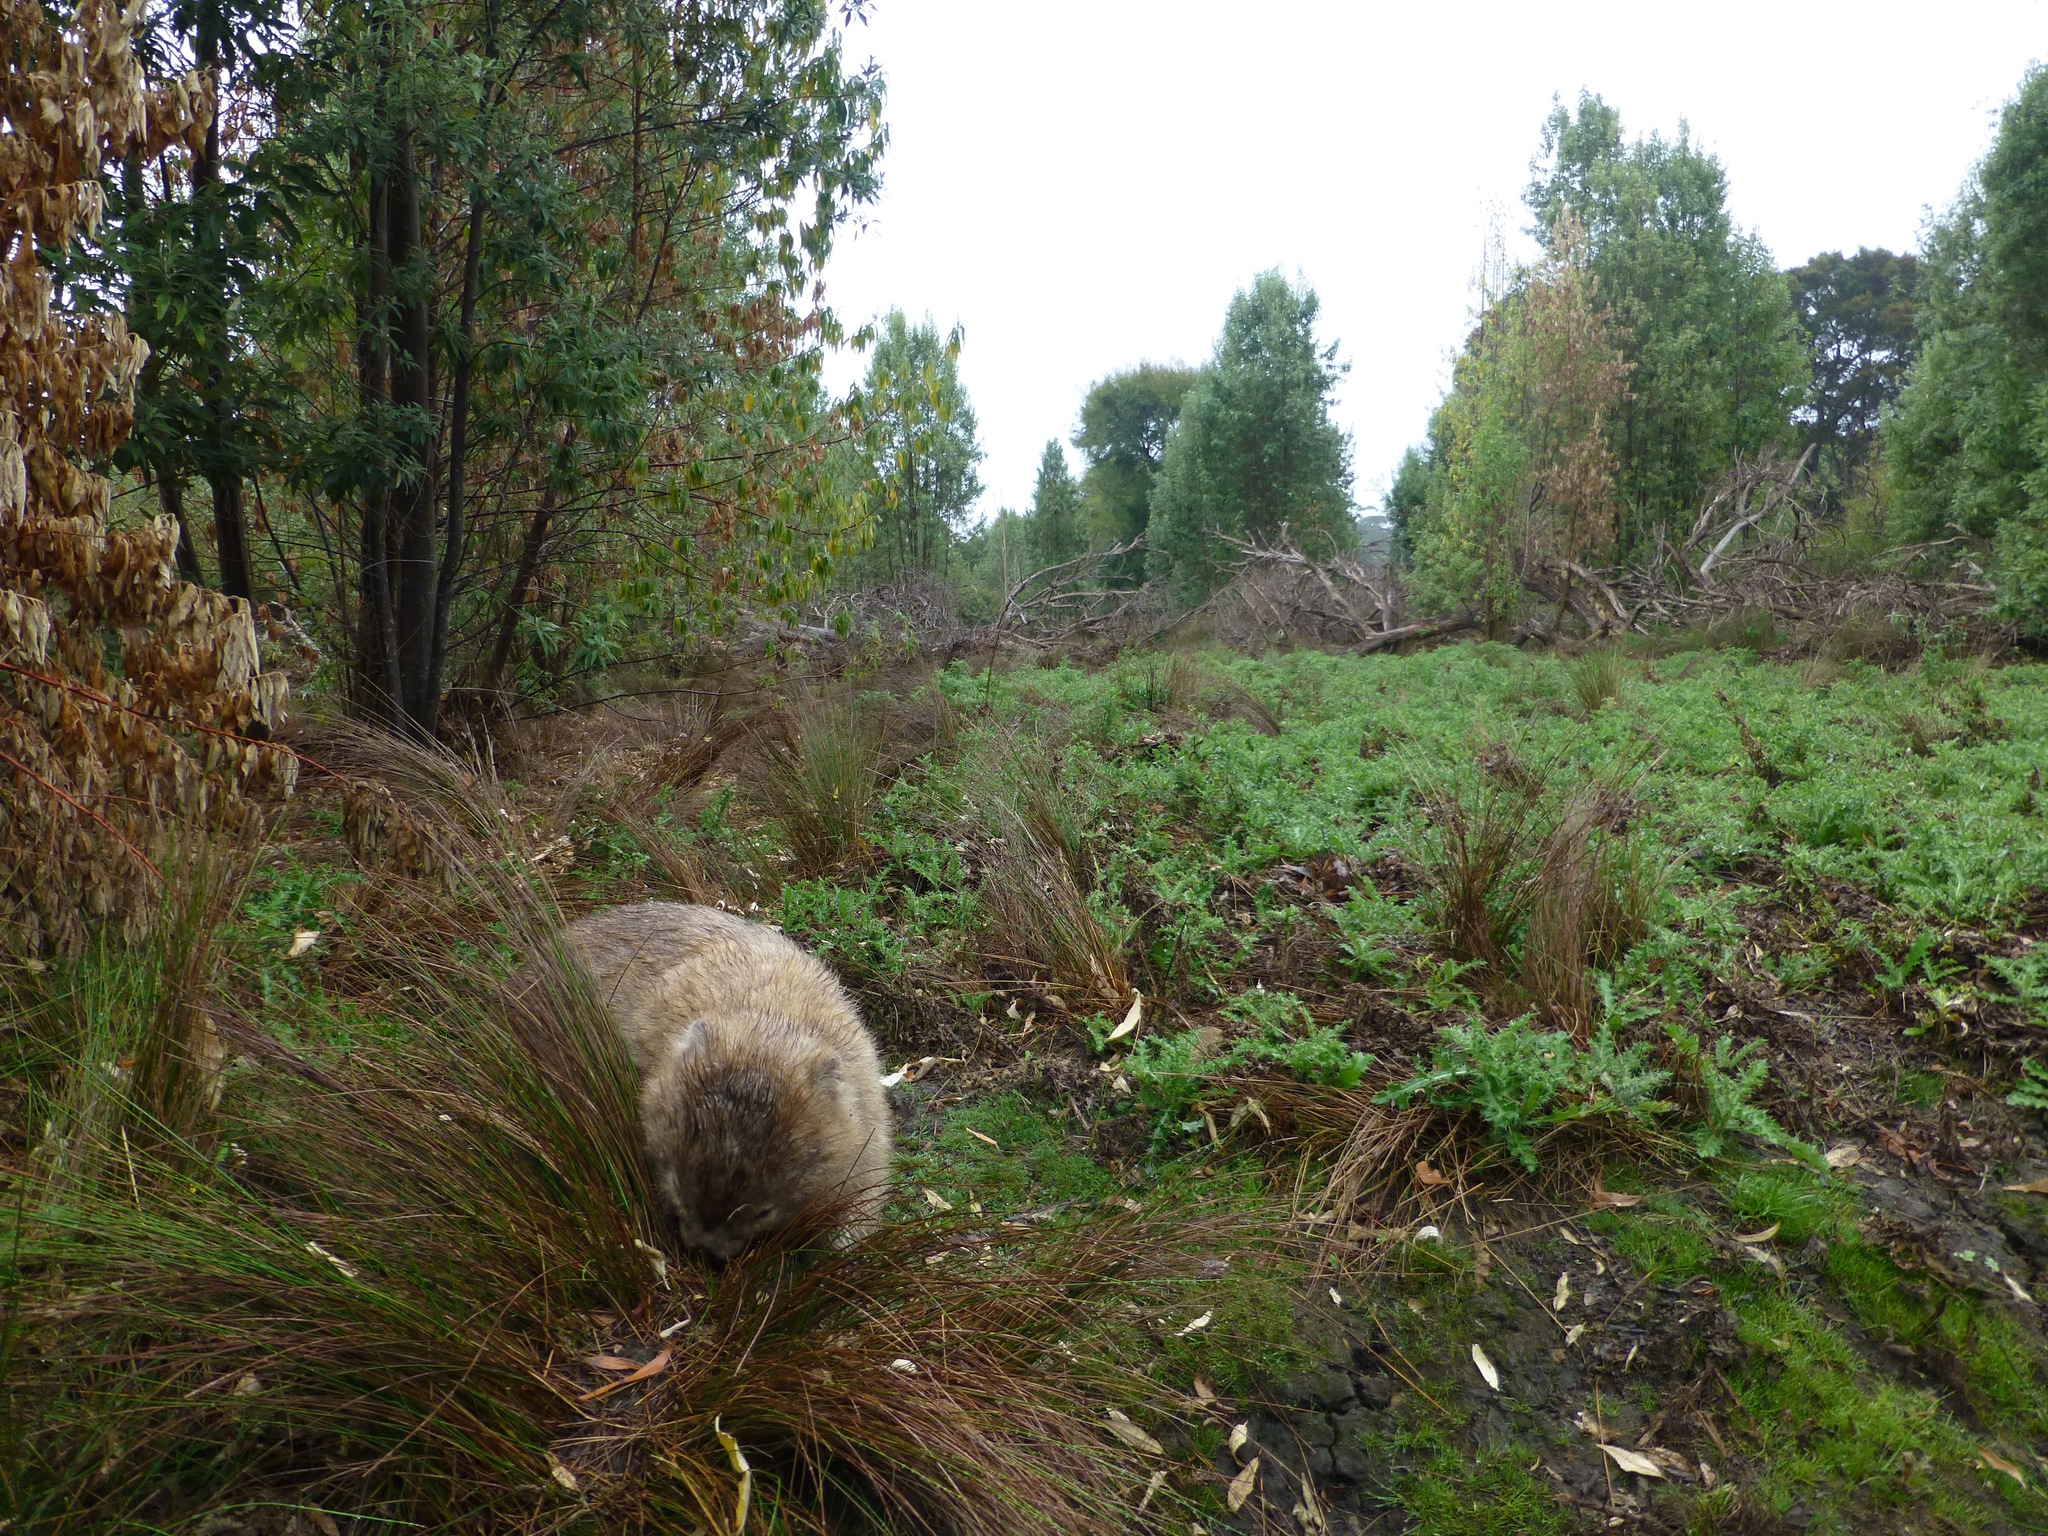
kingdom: Animalia
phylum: Chordata
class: Mammalia
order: Diprotodontia
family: Vombatidae
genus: Vombatus
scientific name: Vombatus ursinus
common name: Common wombat
